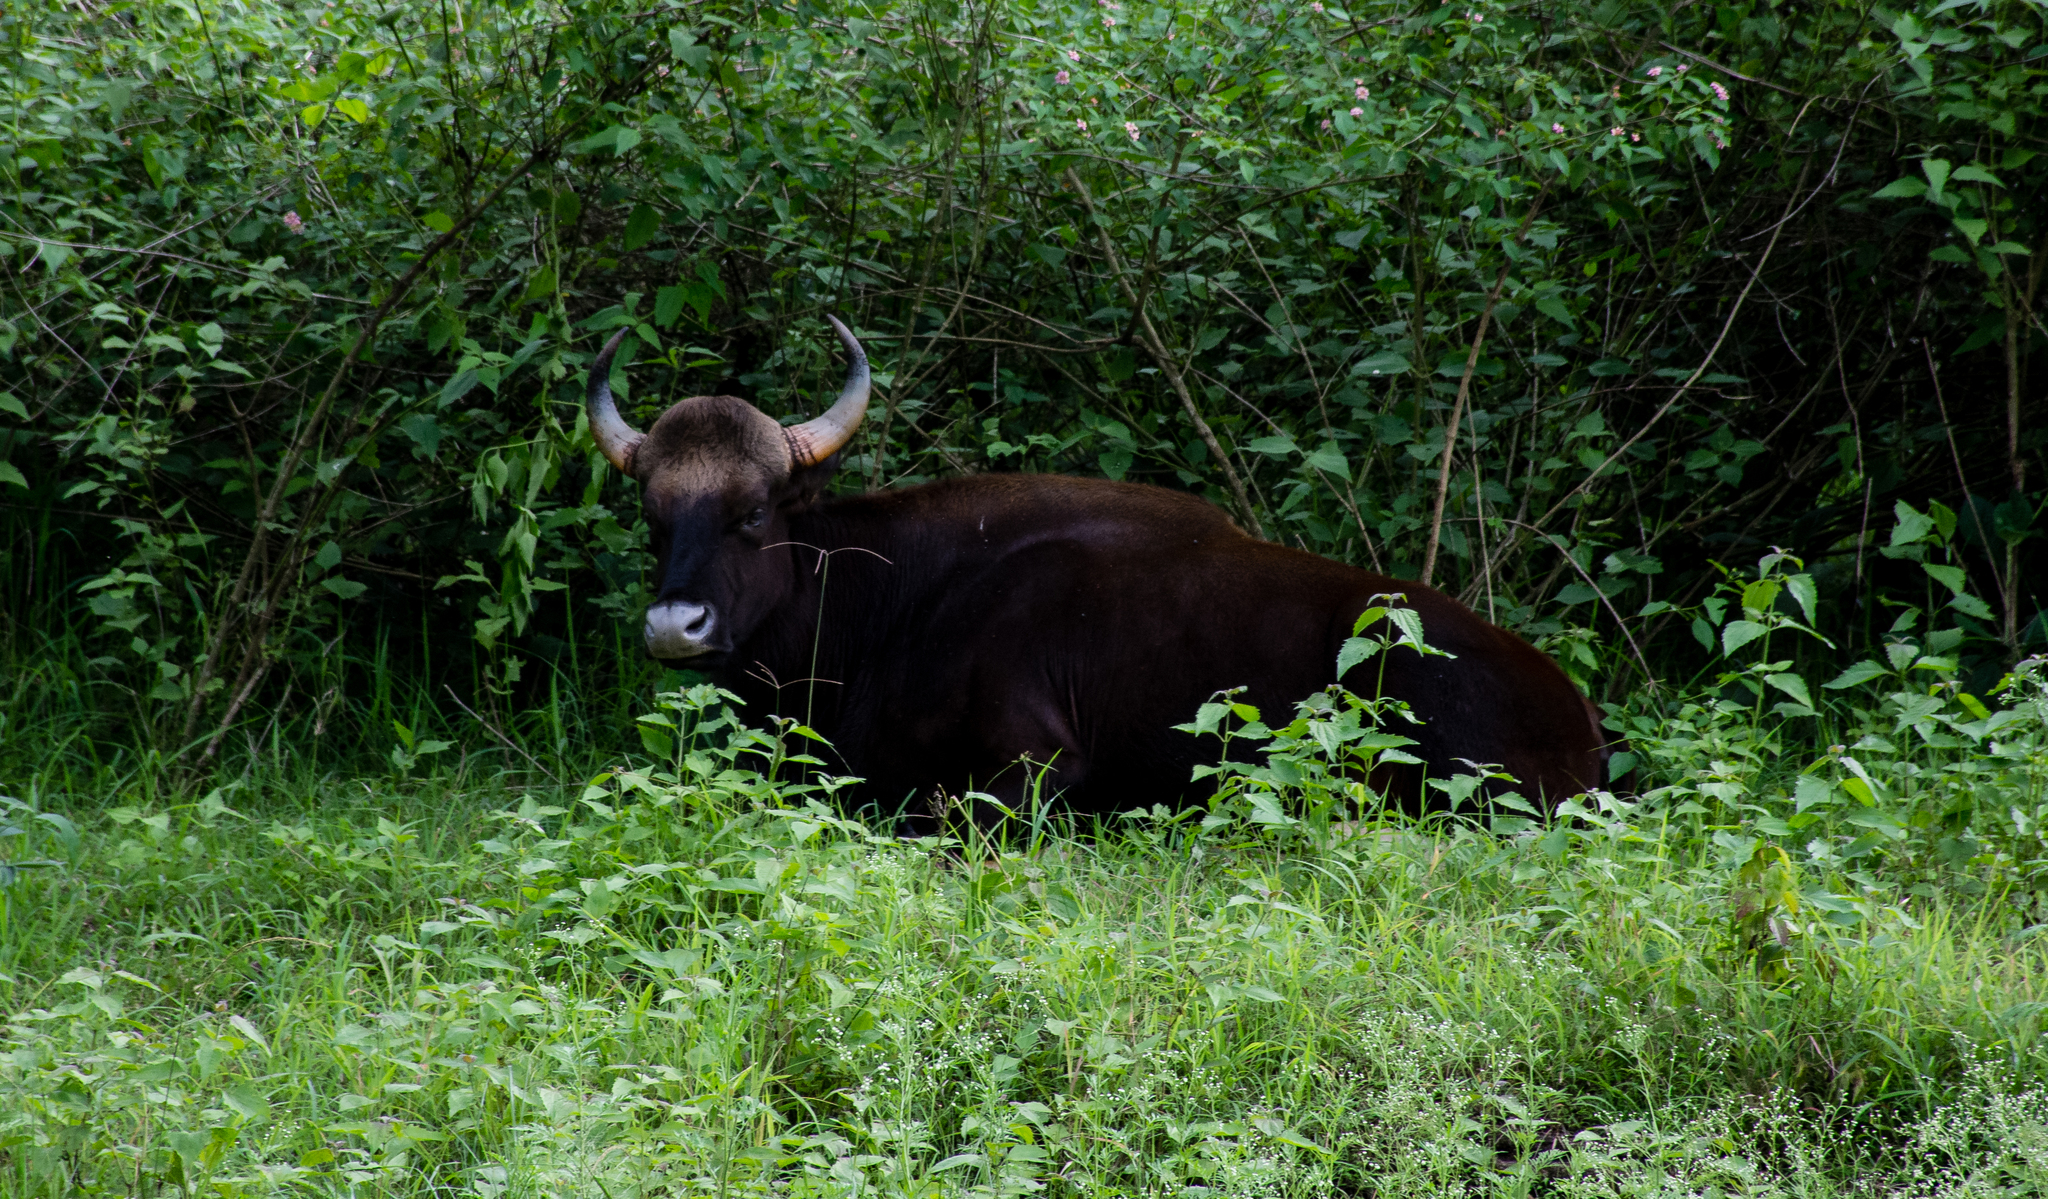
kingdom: Animalia
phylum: Chordata
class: Mammalia
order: Artiodactyla
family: Bovidae
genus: Bos
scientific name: Bos frontalis
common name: Gaur
